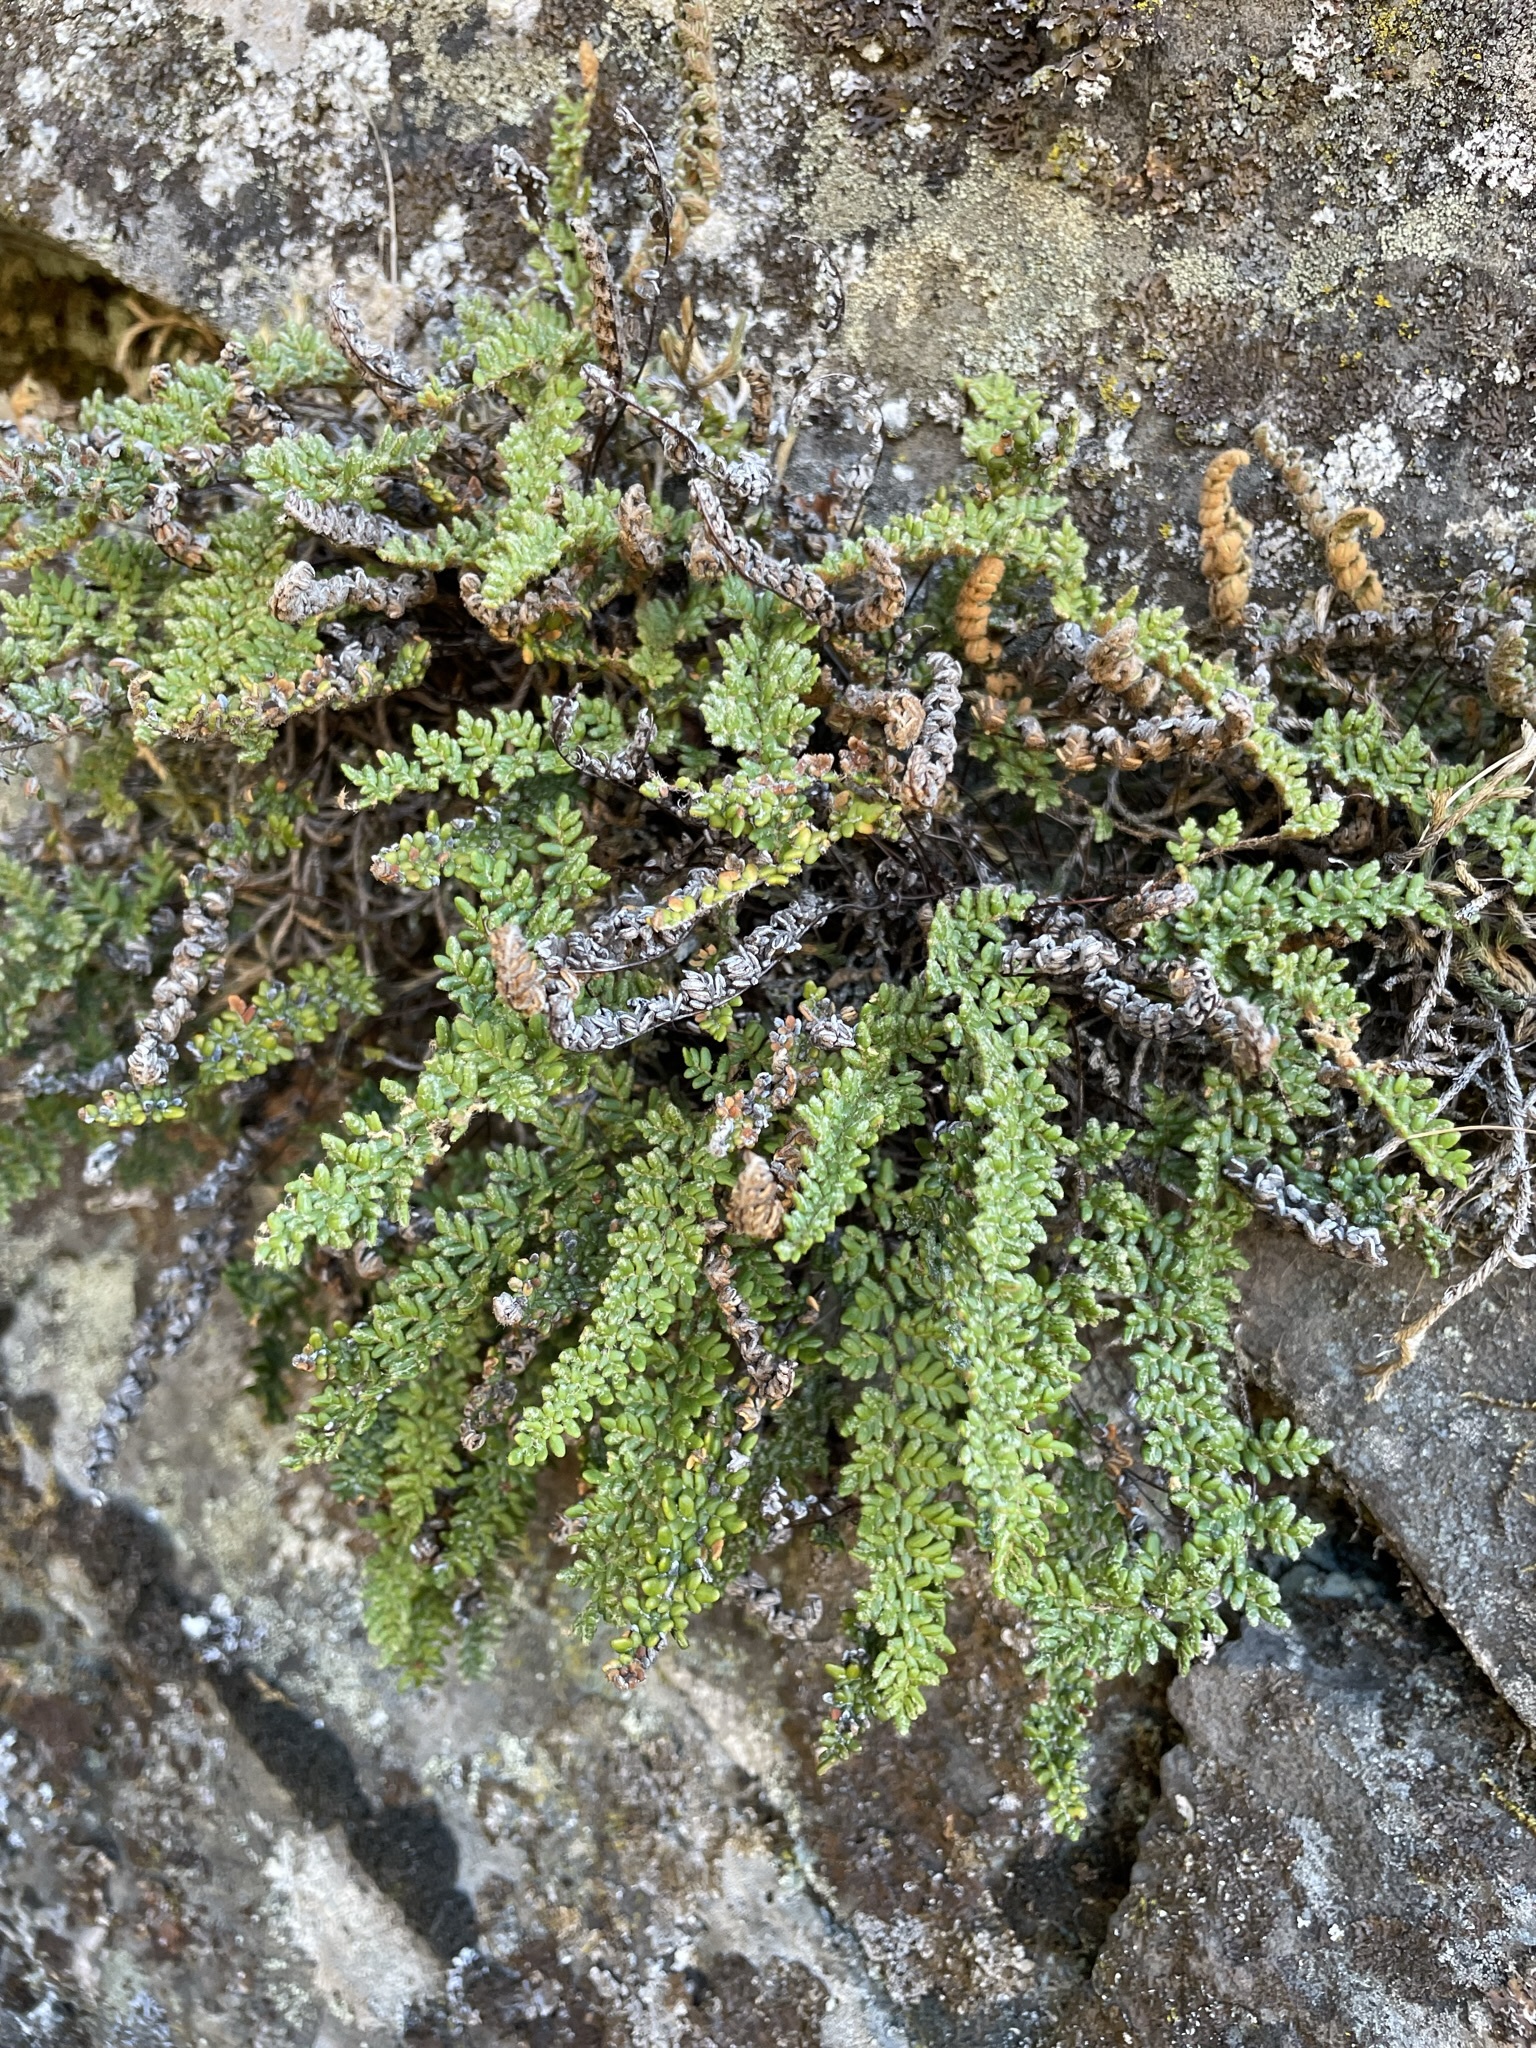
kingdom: Plantae
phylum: Tracheophyta
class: Polypodiopsida
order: Polypodiales
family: Pteridaceae
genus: Myriopteris
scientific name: Myriopteris gracillima
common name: Lace fern
